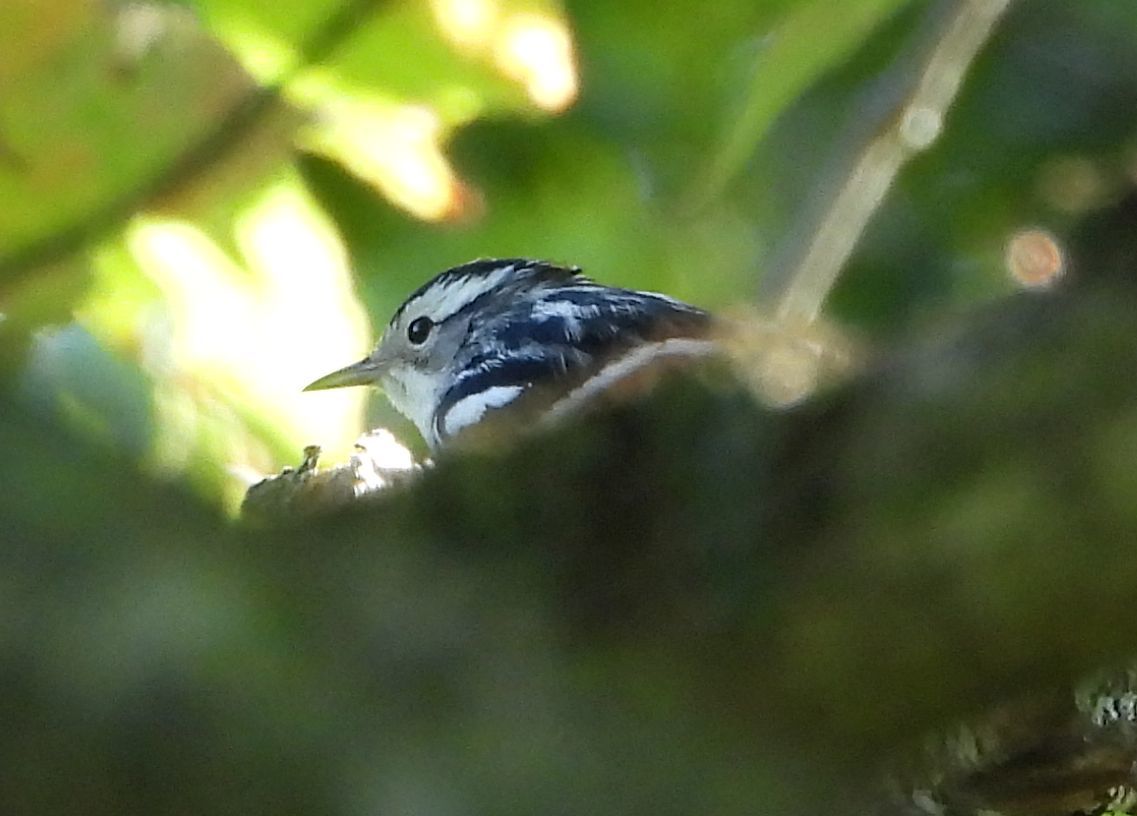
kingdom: Animalia
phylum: Chordata
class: Aves
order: Passeriformes
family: Parulidae
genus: Mniotilta
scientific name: Mniotilta varia
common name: Black-and-white warbler
